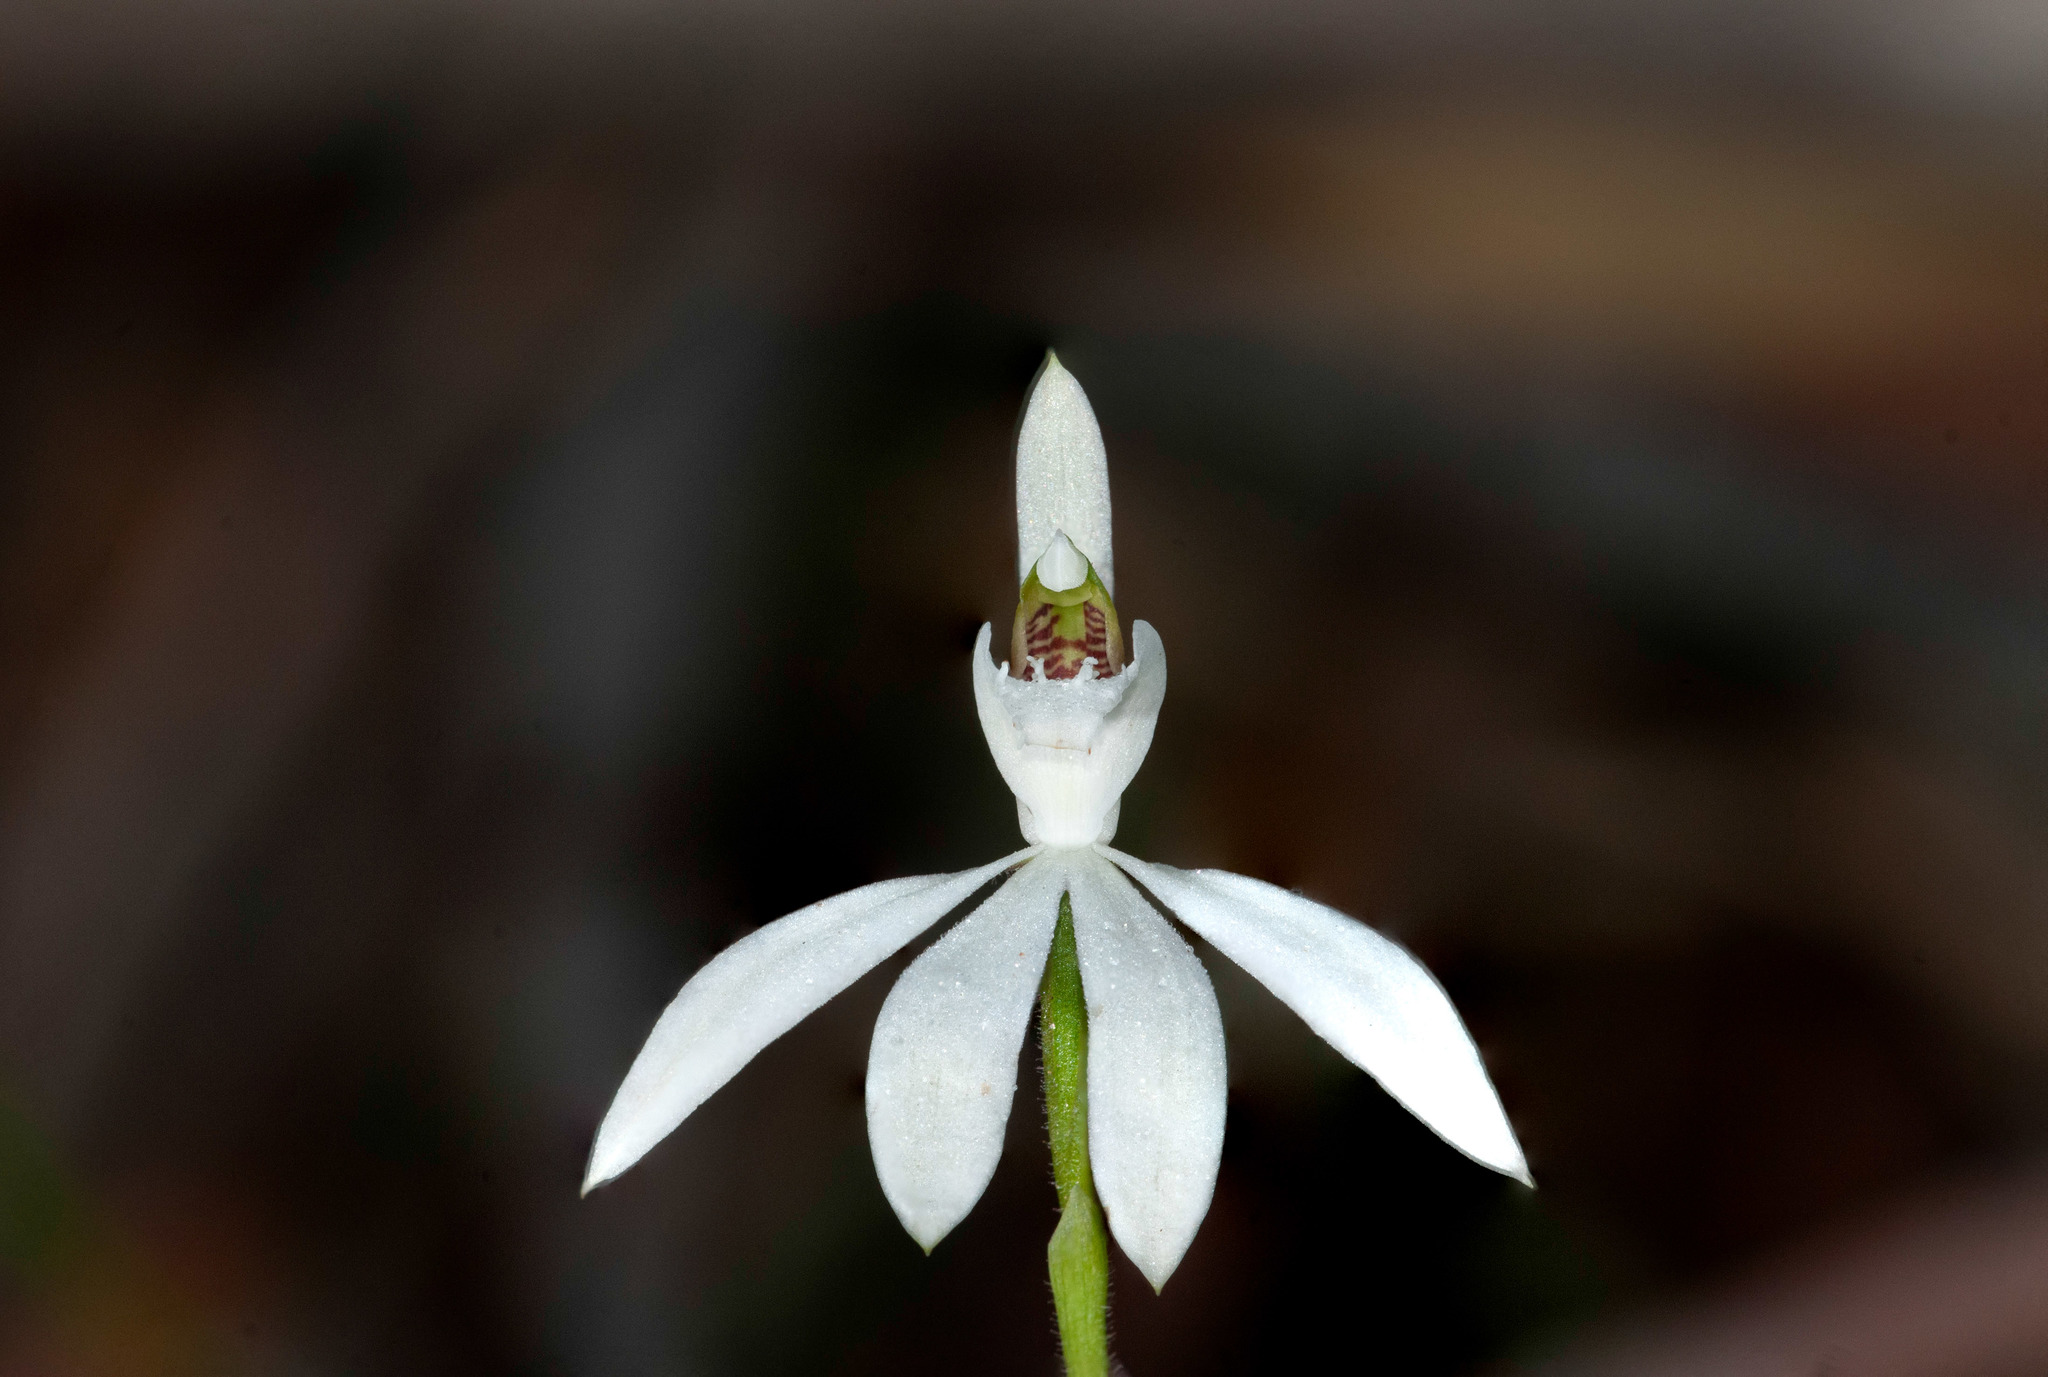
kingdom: Plantae
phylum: Tracheophyta
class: Liliopsida
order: Asparagales
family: Orchidaceae
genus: Caladenia
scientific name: Caladenia catenata
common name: White caladenia
